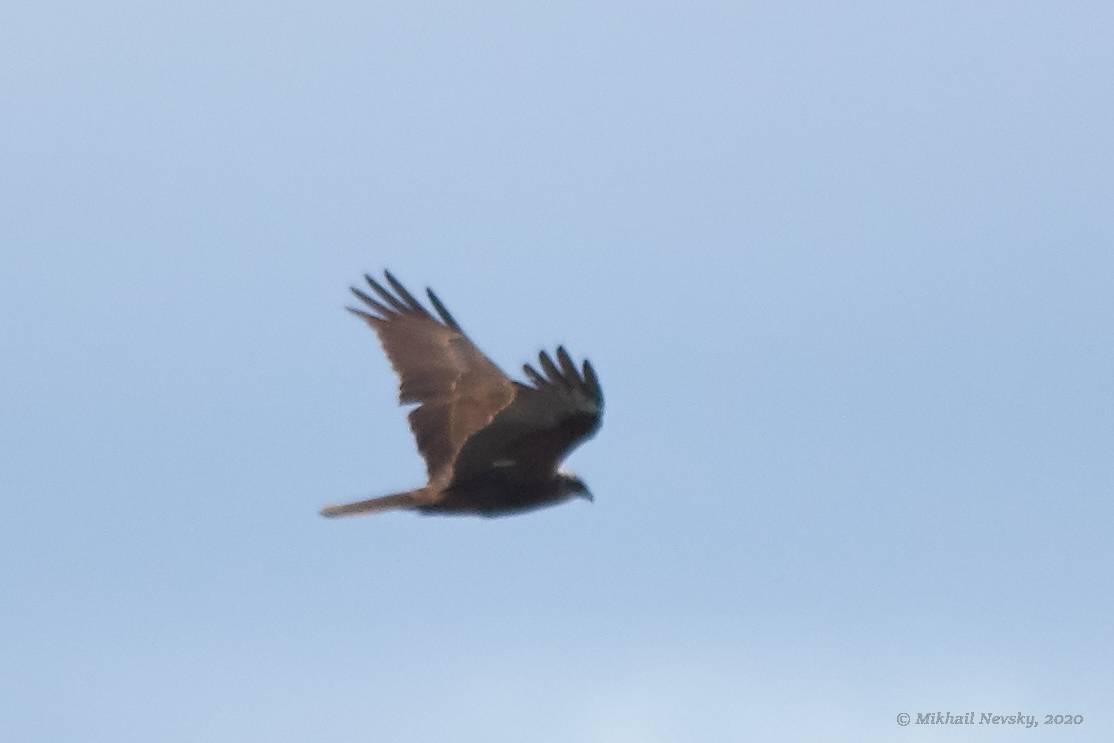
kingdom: Animalia
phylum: Chordata
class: Aves
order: Accipitriformes
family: Accipitridae
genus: Circus
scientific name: Circus aeruginosus
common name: Western marsh harrier
